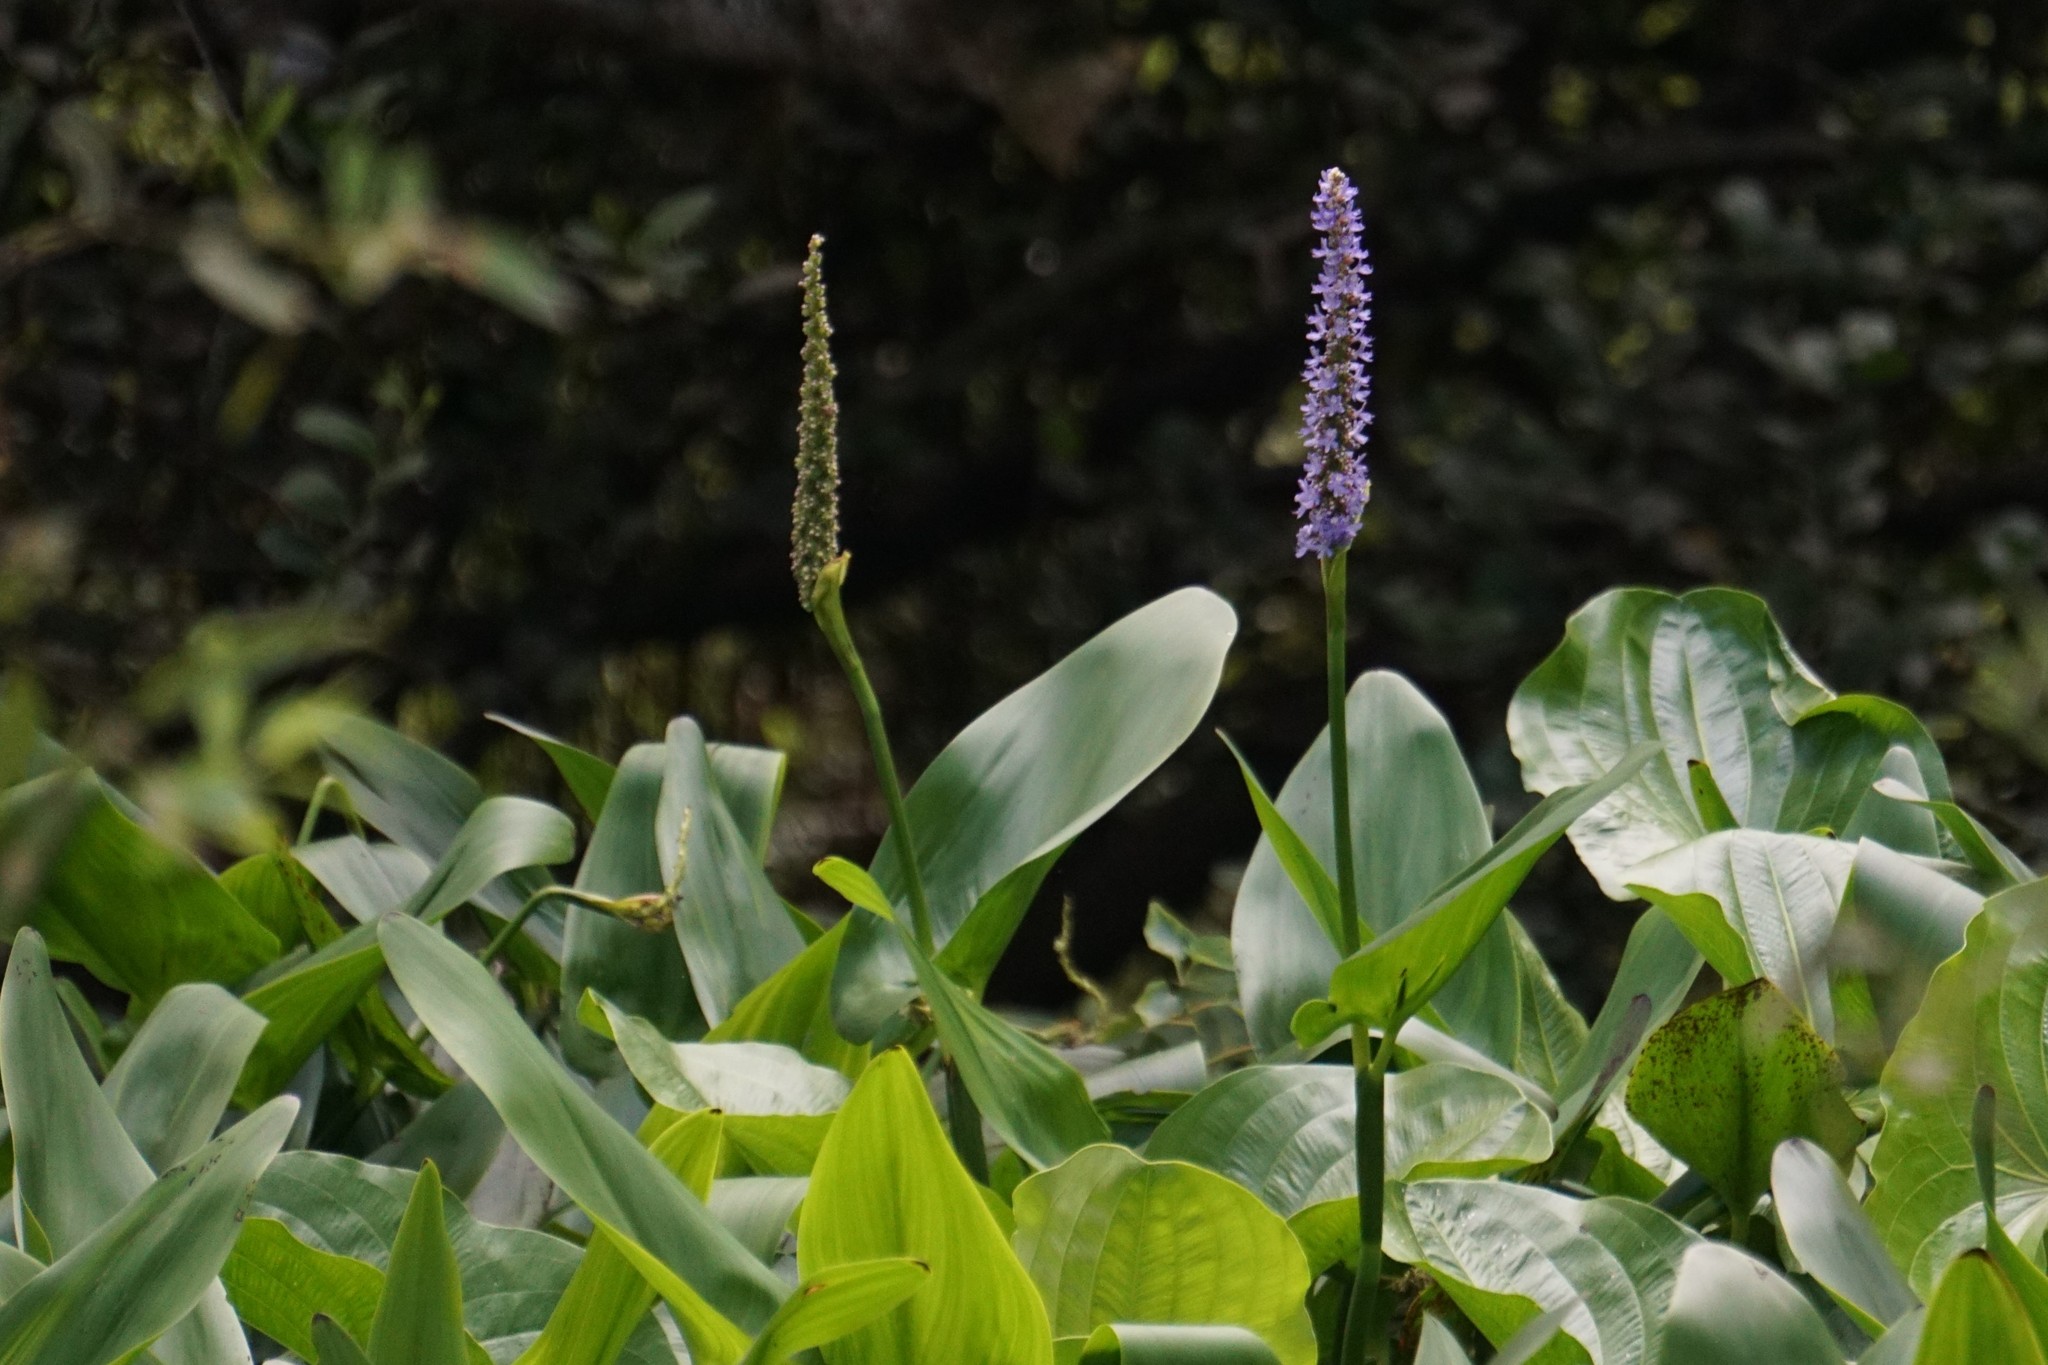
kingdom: Plantae
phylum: Tracheophyta
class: Liliopsida
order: Commelinales
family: Pontederiaceae
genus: Pontederia
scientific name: Pontederia cordata
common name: Pickerelweed
